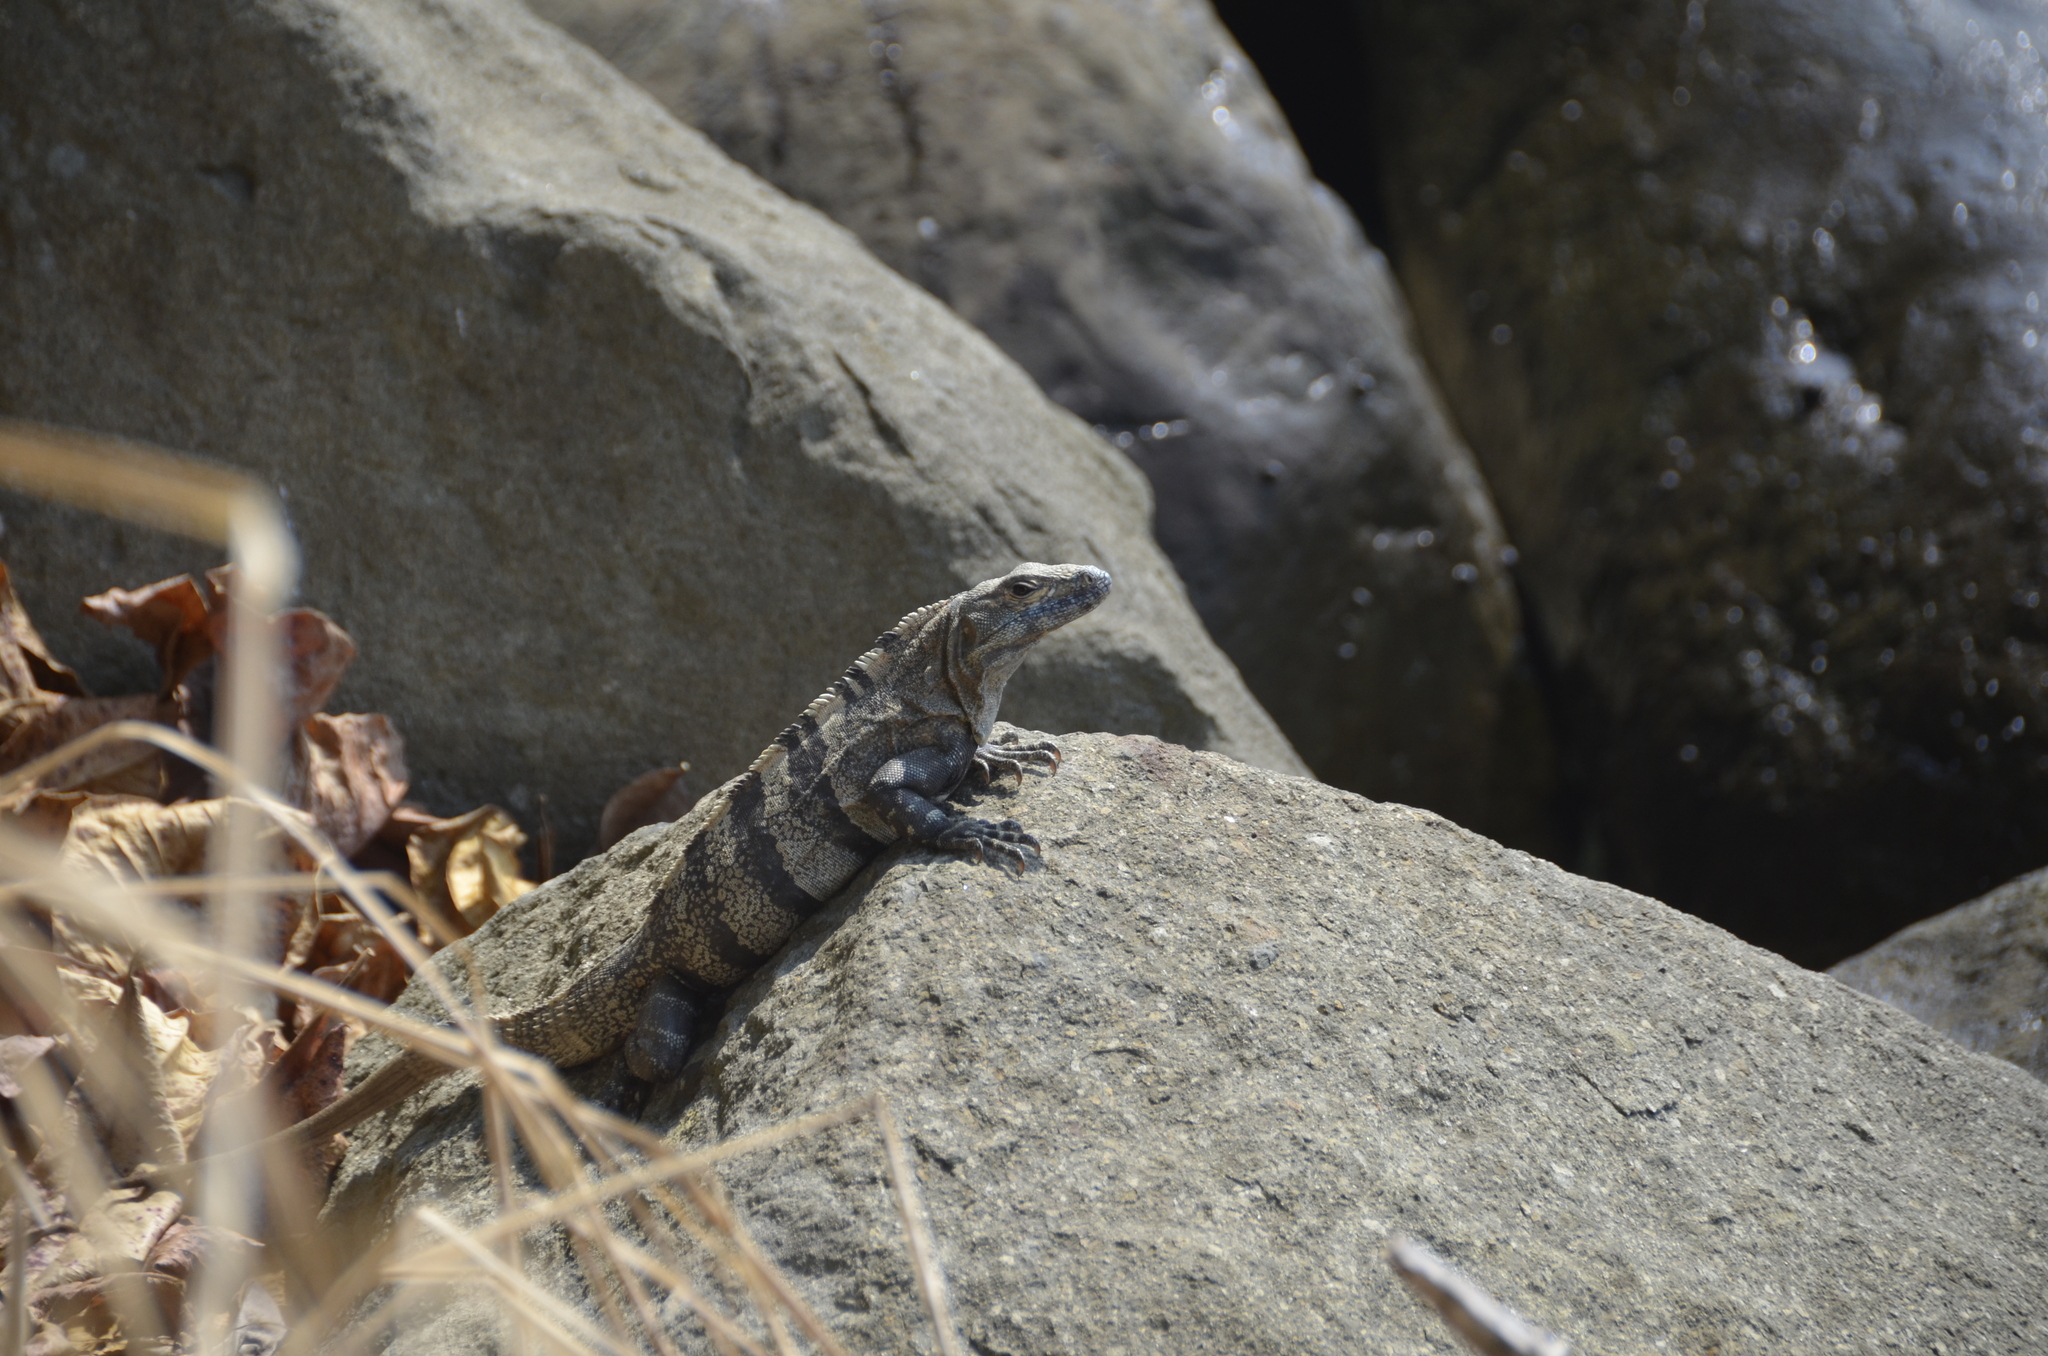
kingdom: Animalia
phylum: Chordata
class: Squamata
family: Iguanidae
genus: Ctenosaura
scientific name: Ctenosaura similis
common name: Black spiny-tailed iguana
